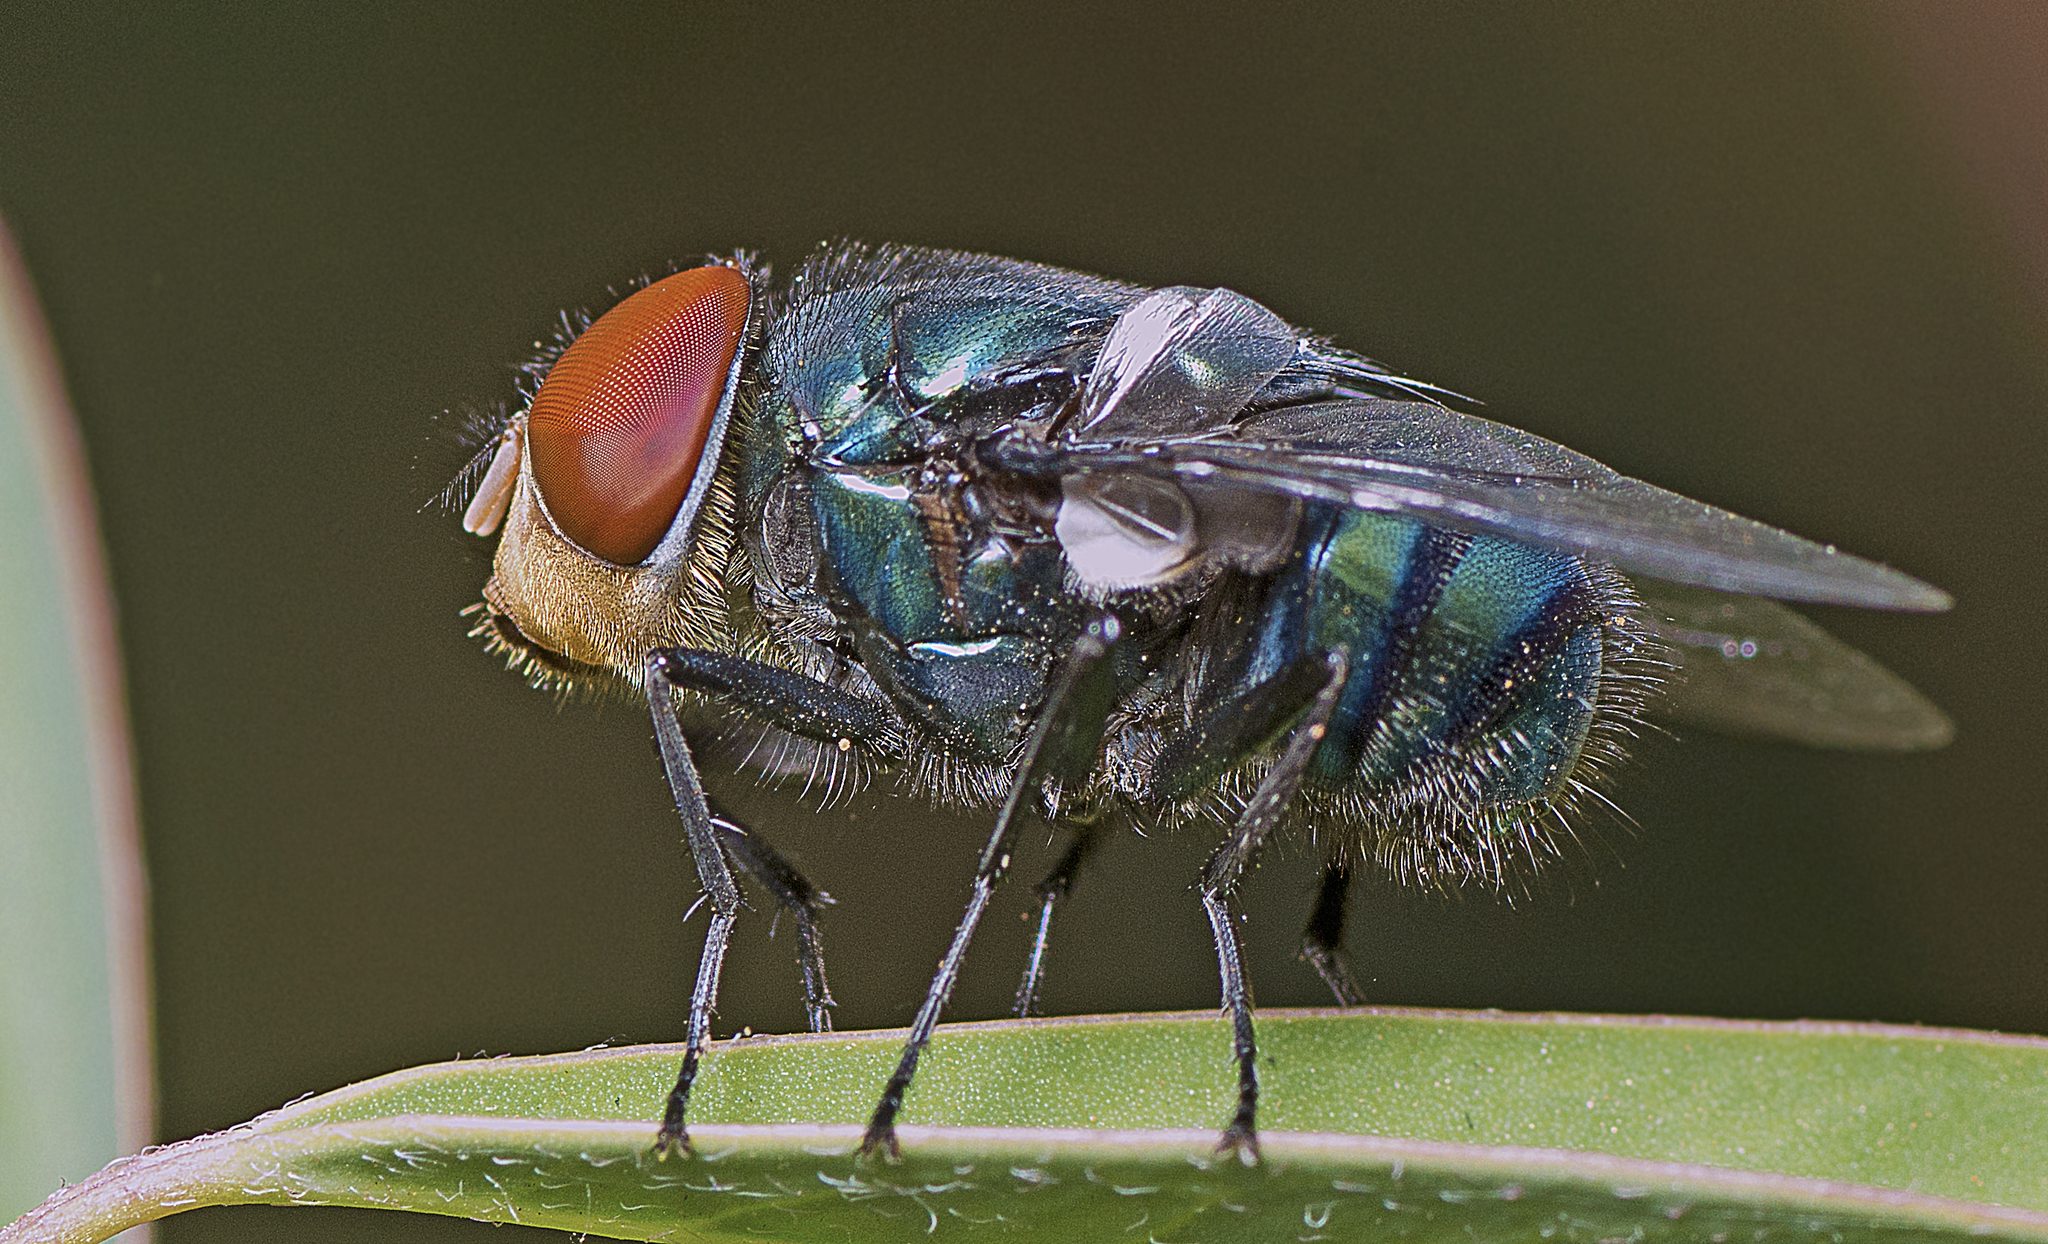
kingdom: Animalia
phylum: Arthropoda
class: Insecta
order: Diptera
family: Calliphoridae
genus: Chrysomya
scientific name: Chrysomya megacephala
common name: Blow fly
